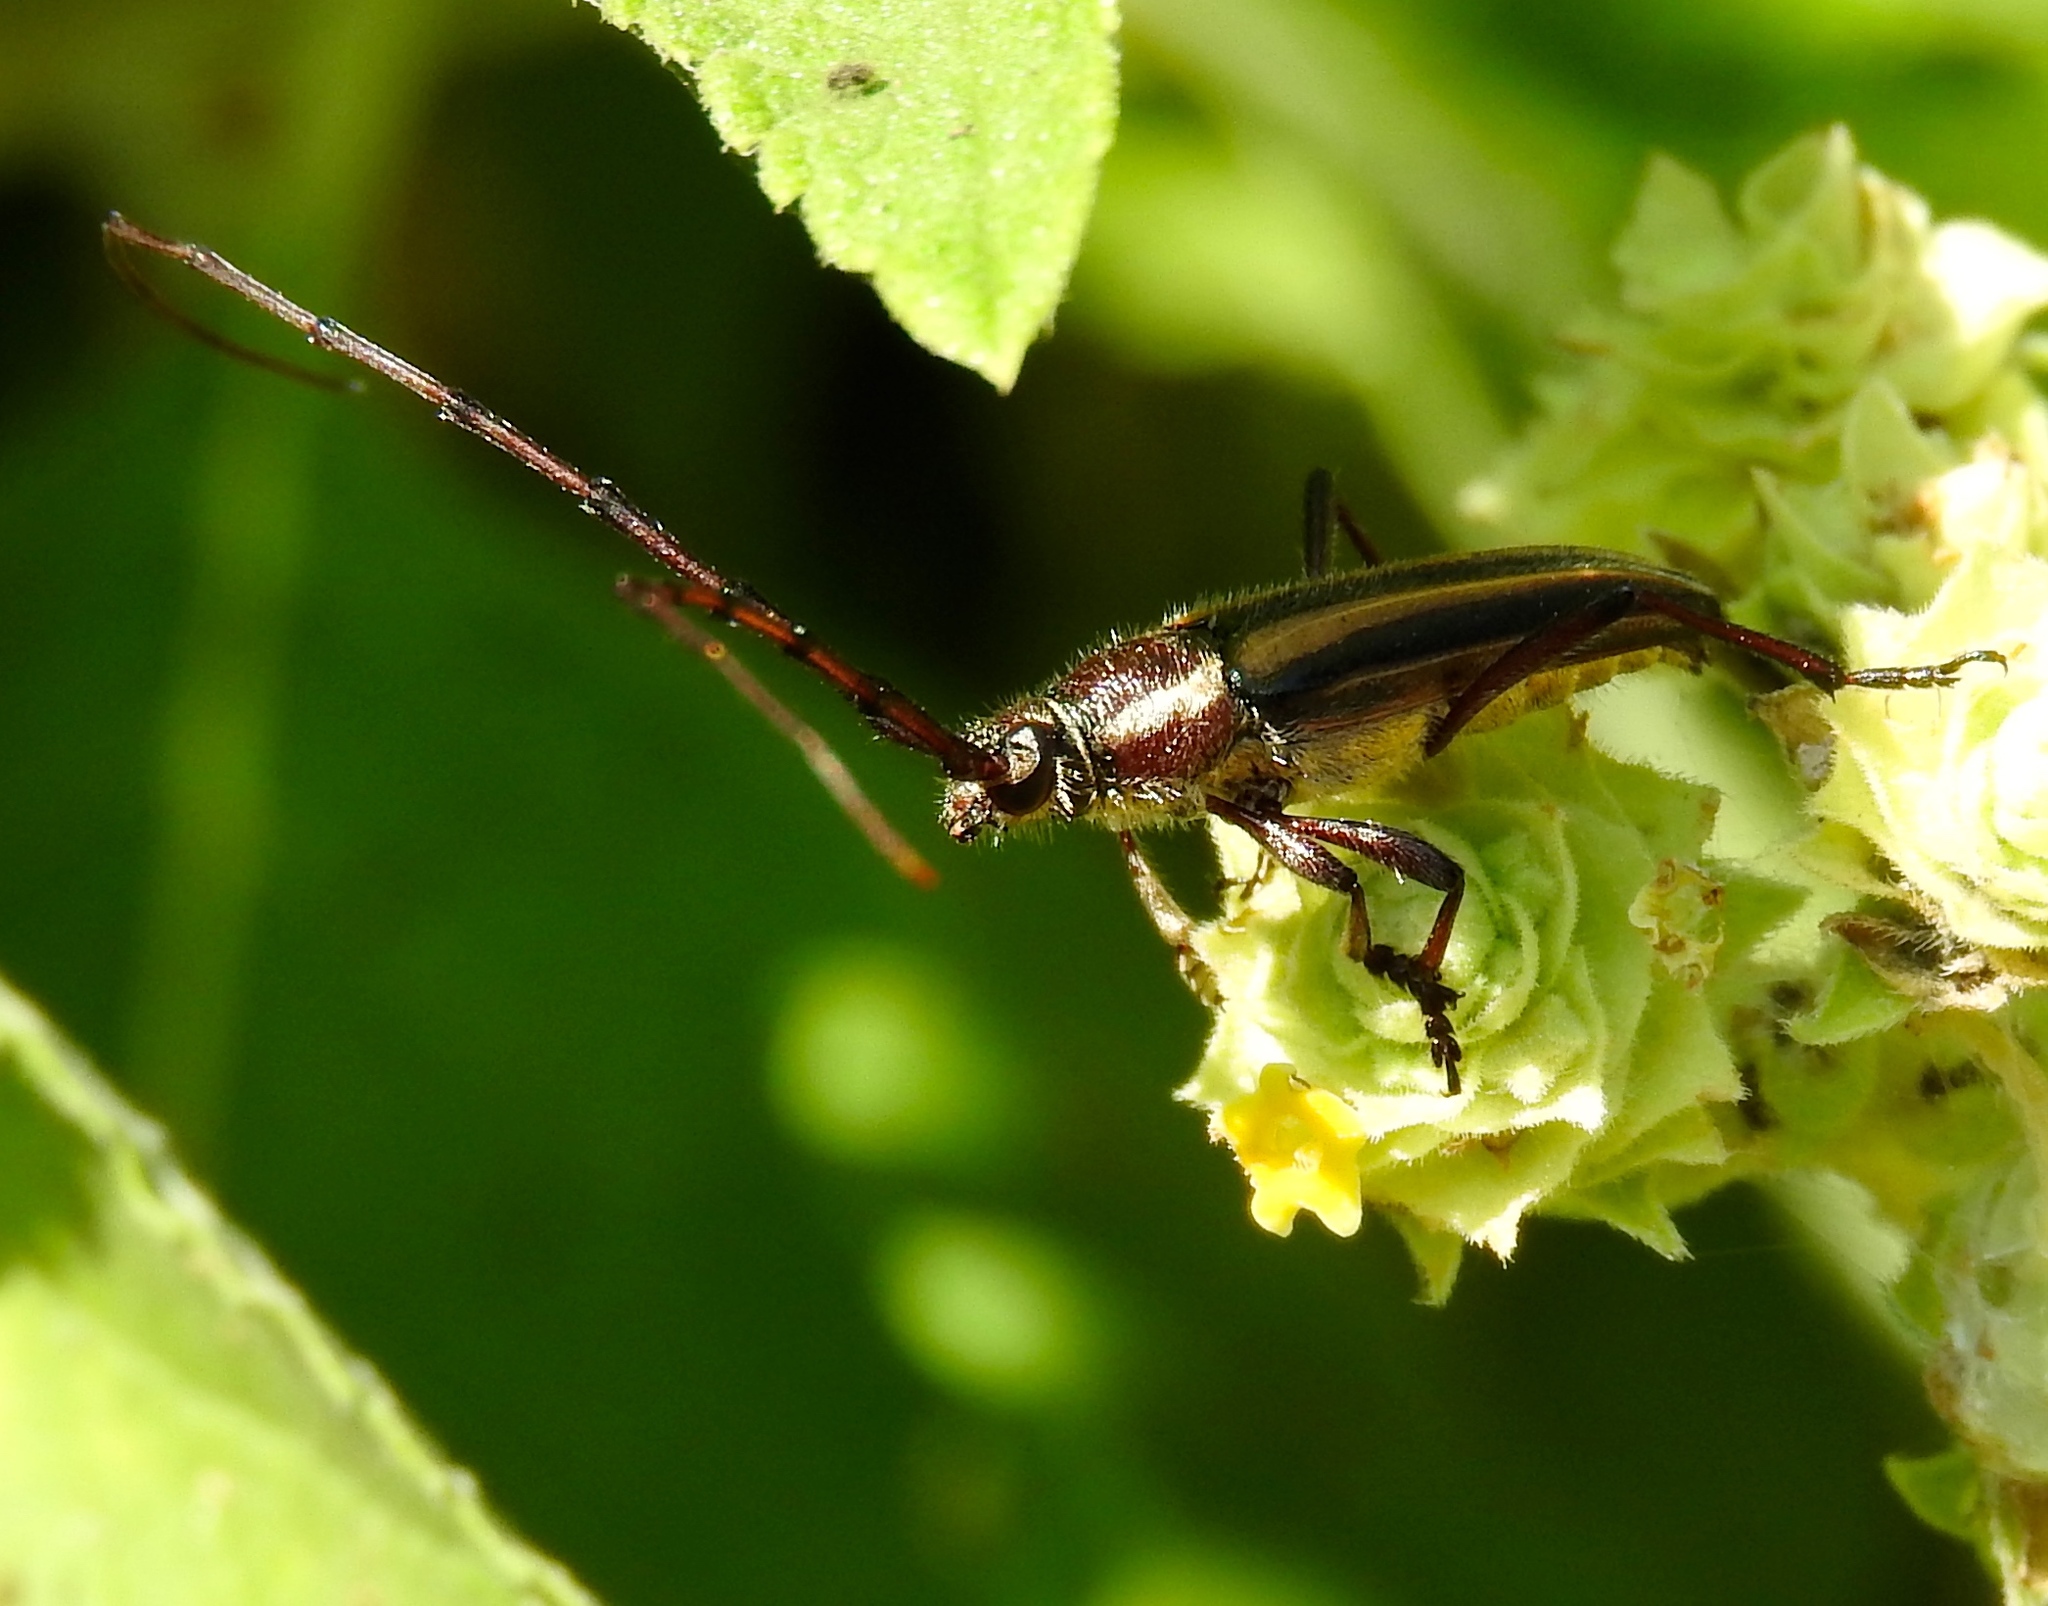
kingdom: Animalia
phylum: Arthropoda
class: Insecta
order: Coleoptera
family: Cerambycidae
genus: Sphaenothecus
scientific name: Sphaenothecus
